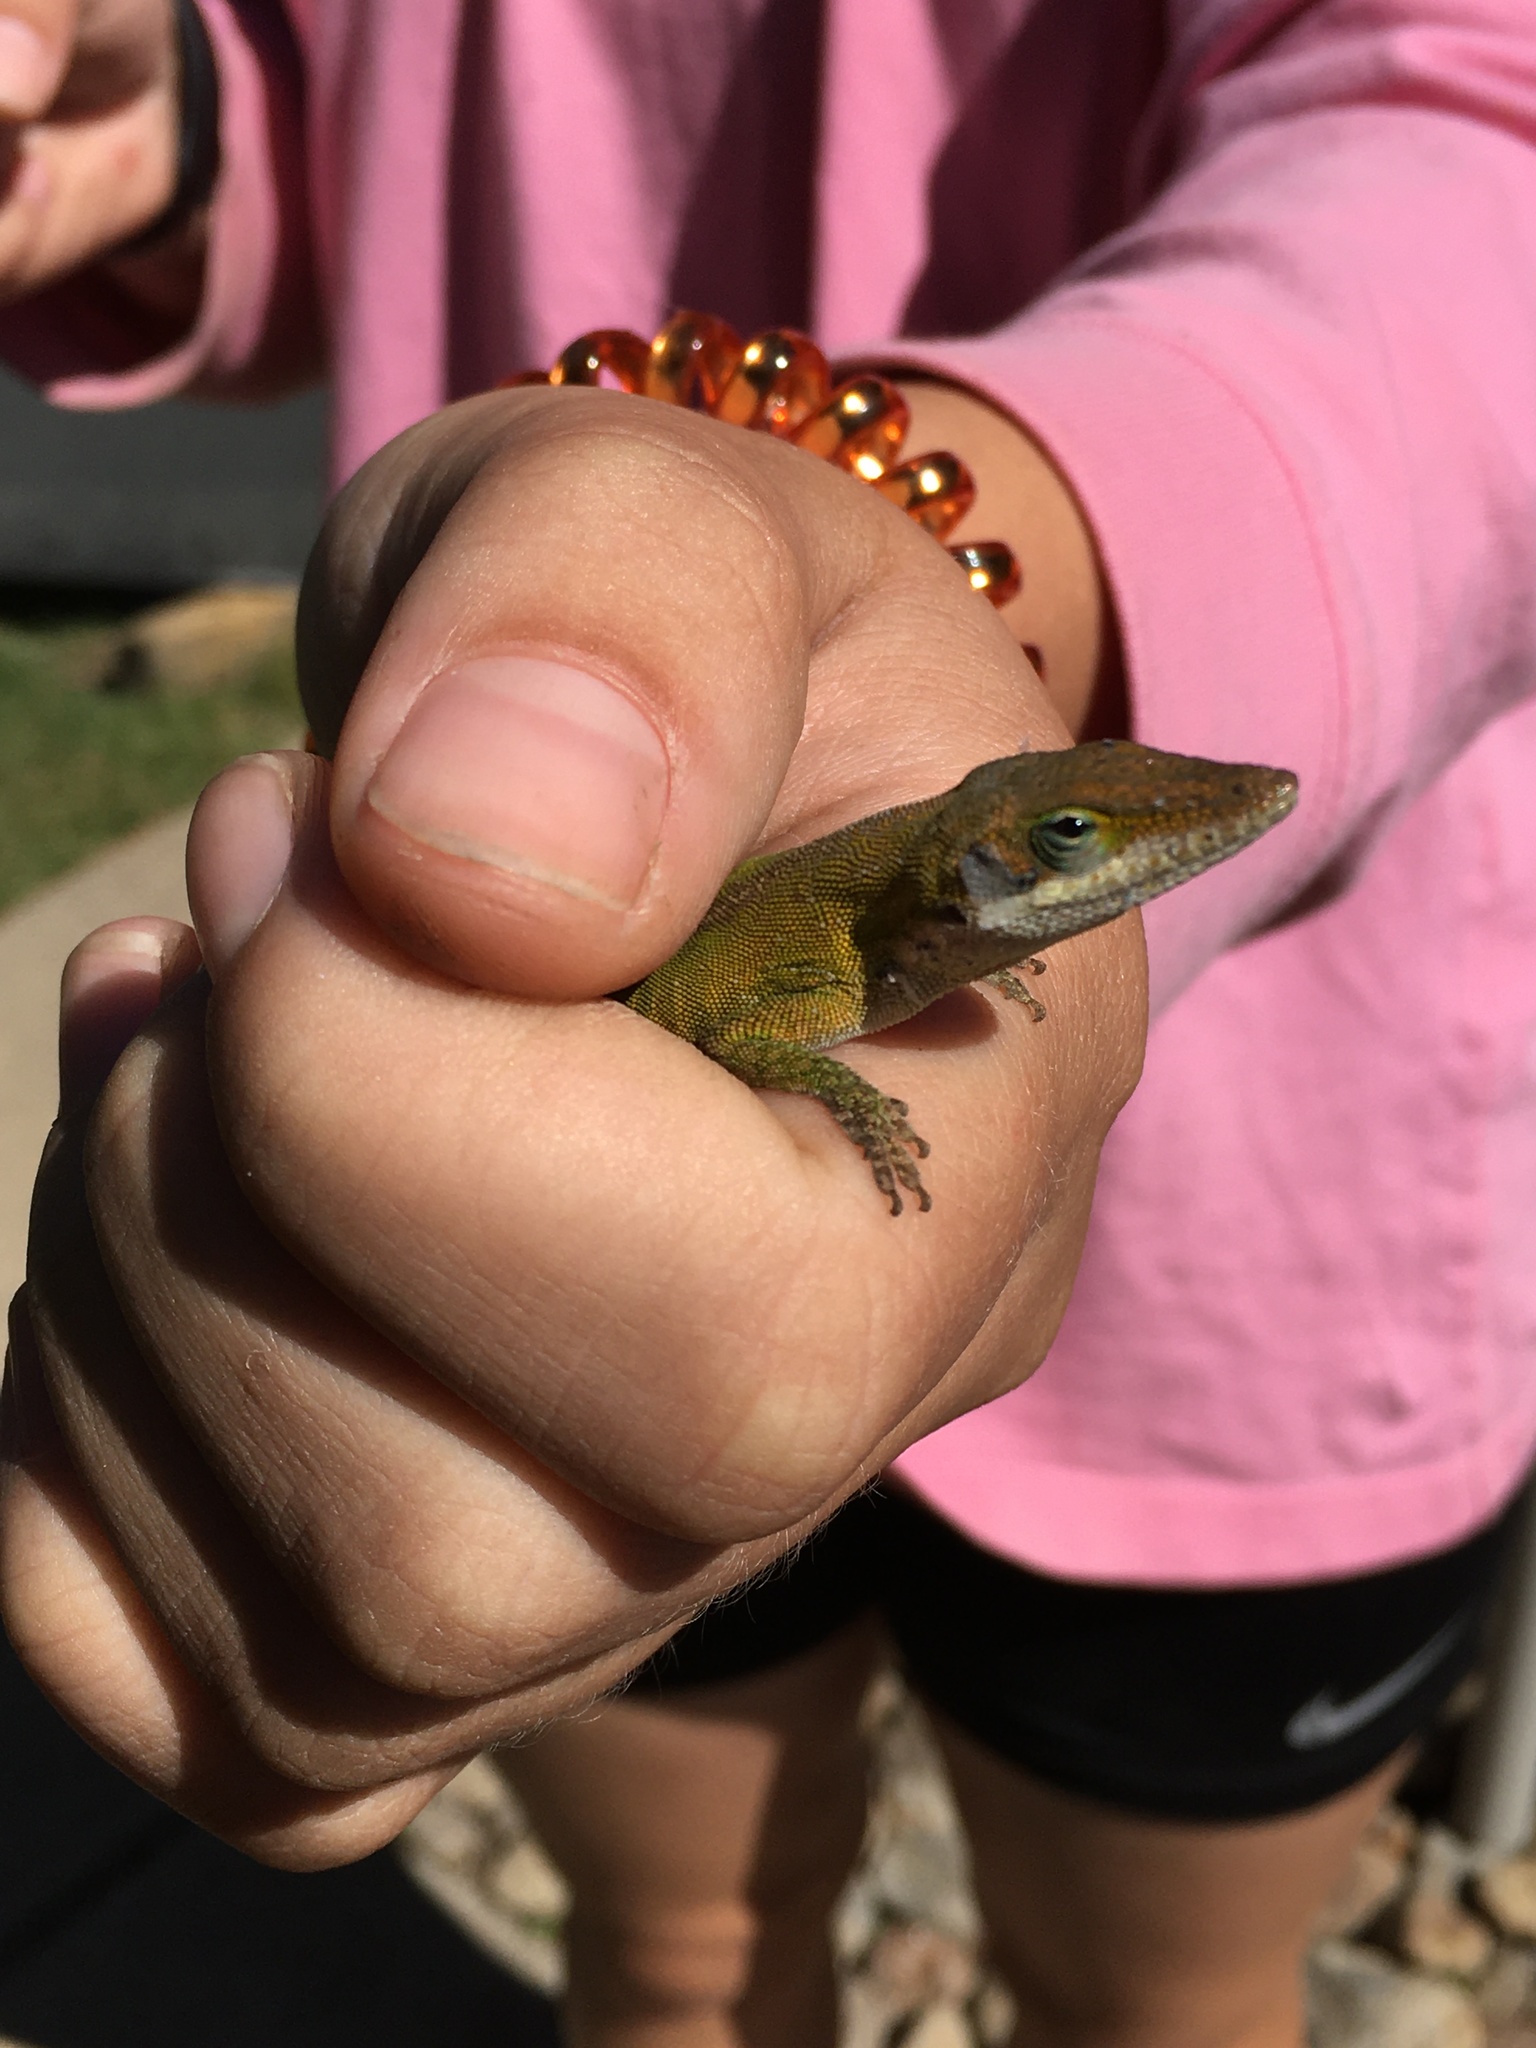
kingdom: Animalia
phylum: Chordata
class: Squamata
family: Dactyloidae
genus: Anolis
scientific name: Anolis carolinensis
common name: Green anole
